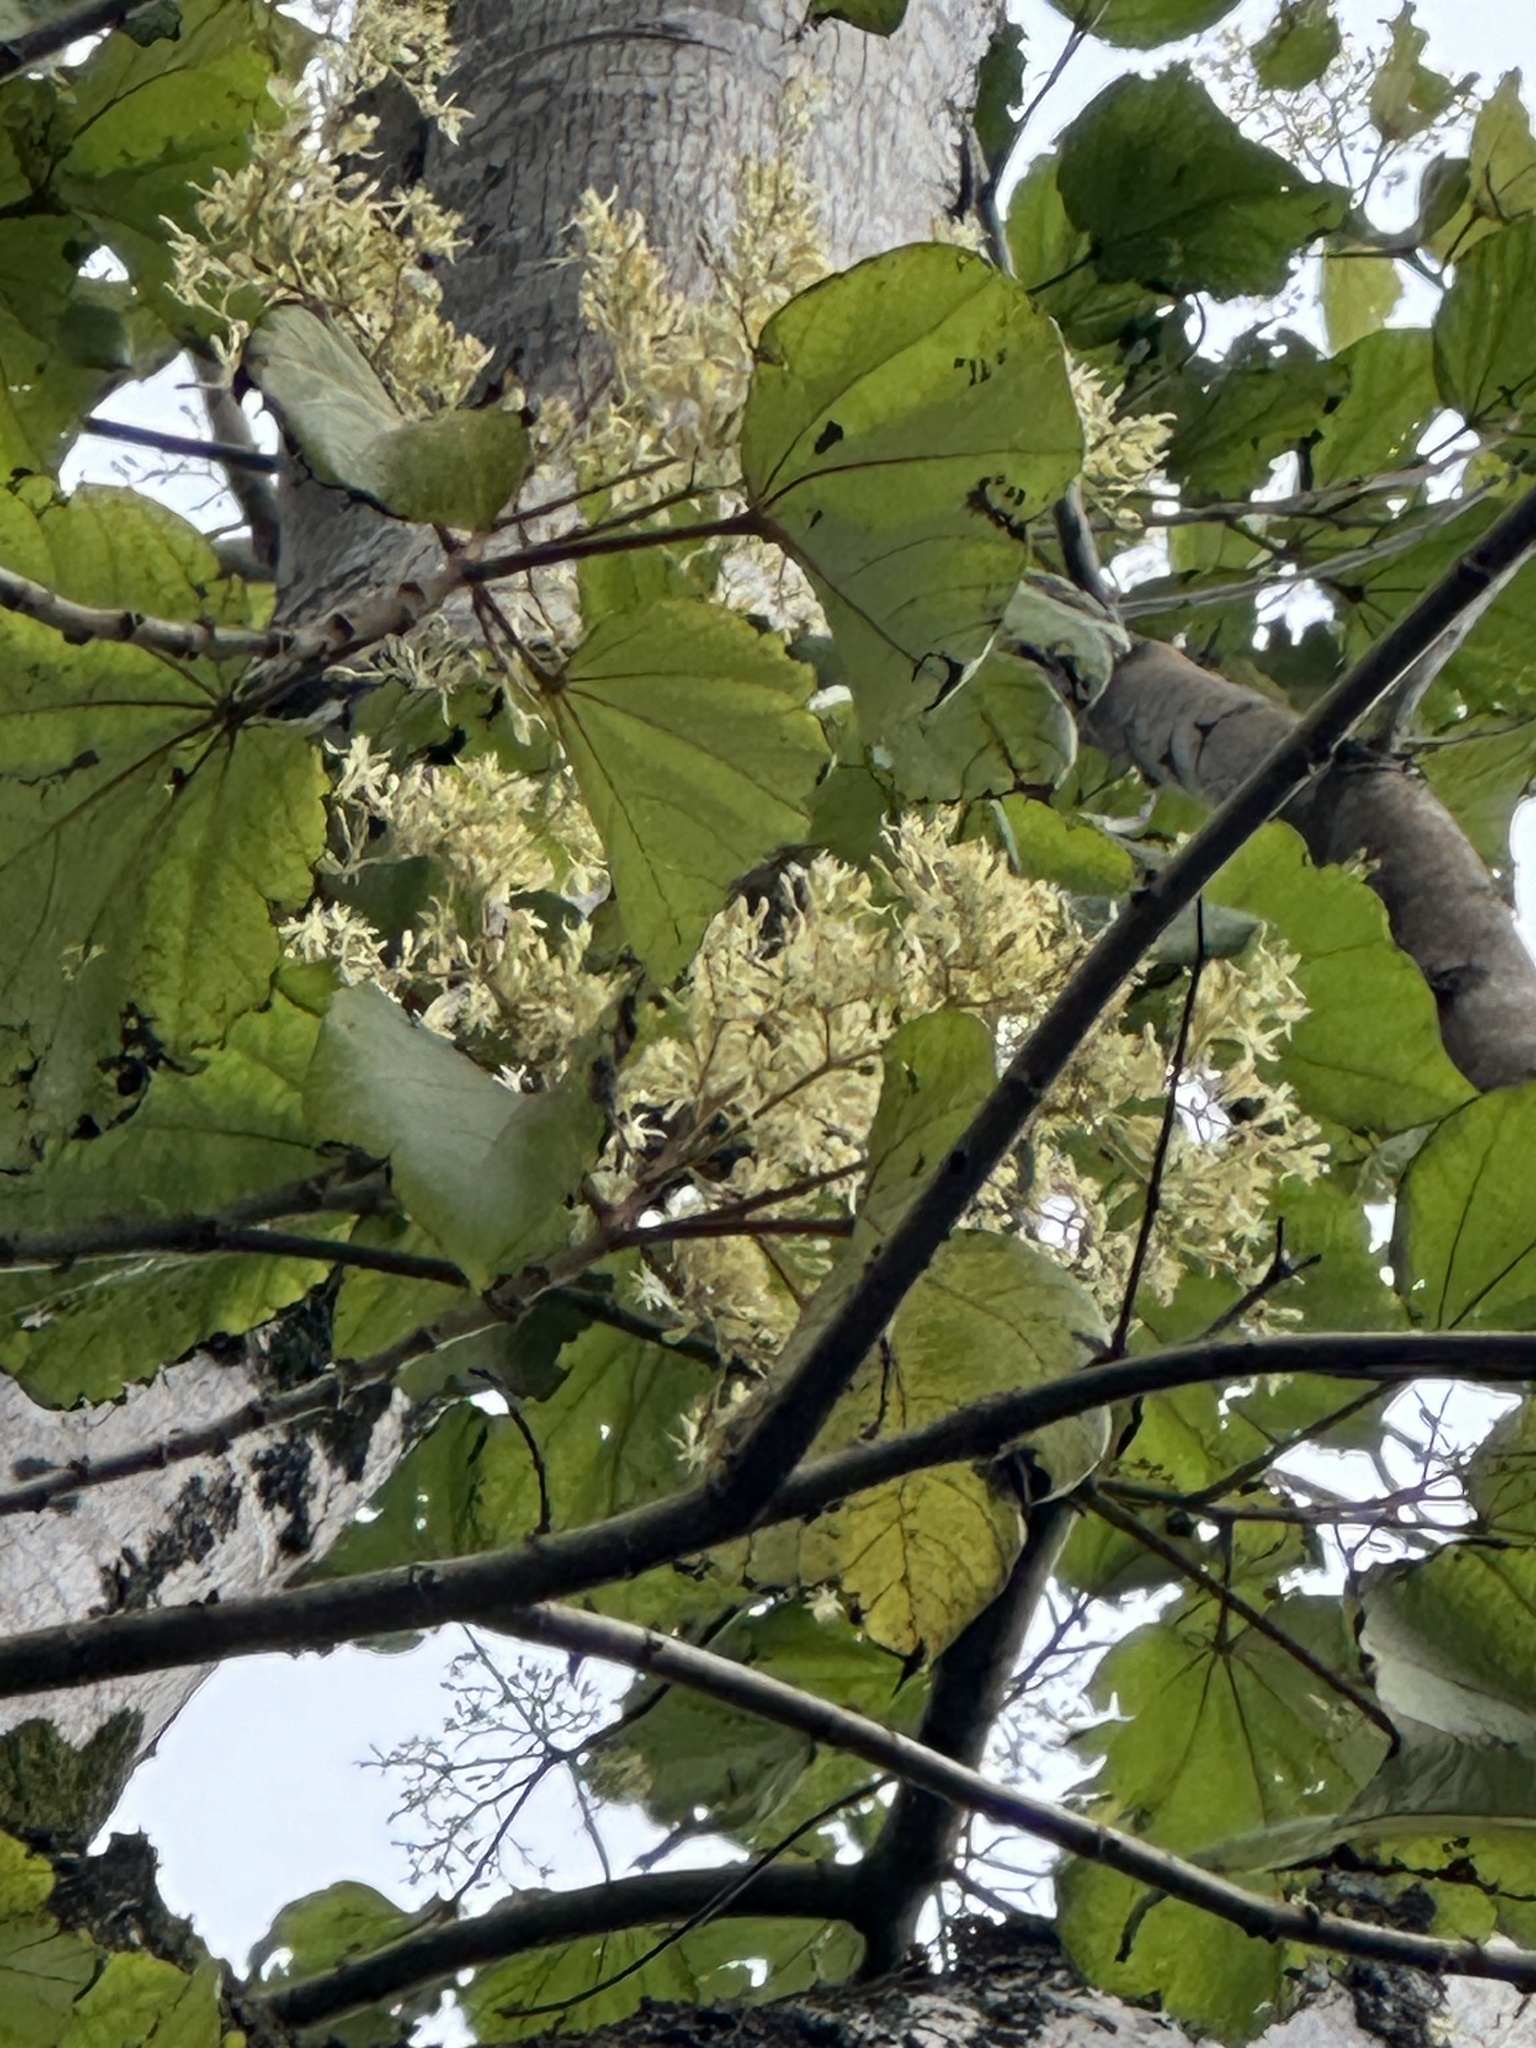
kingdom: Plantae
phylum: Tracheophyta
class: Magnoliopsida
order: Malvales
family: Malvaceae
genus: Heliocarpus
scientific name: Heliocarpus americanus
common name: White moho
